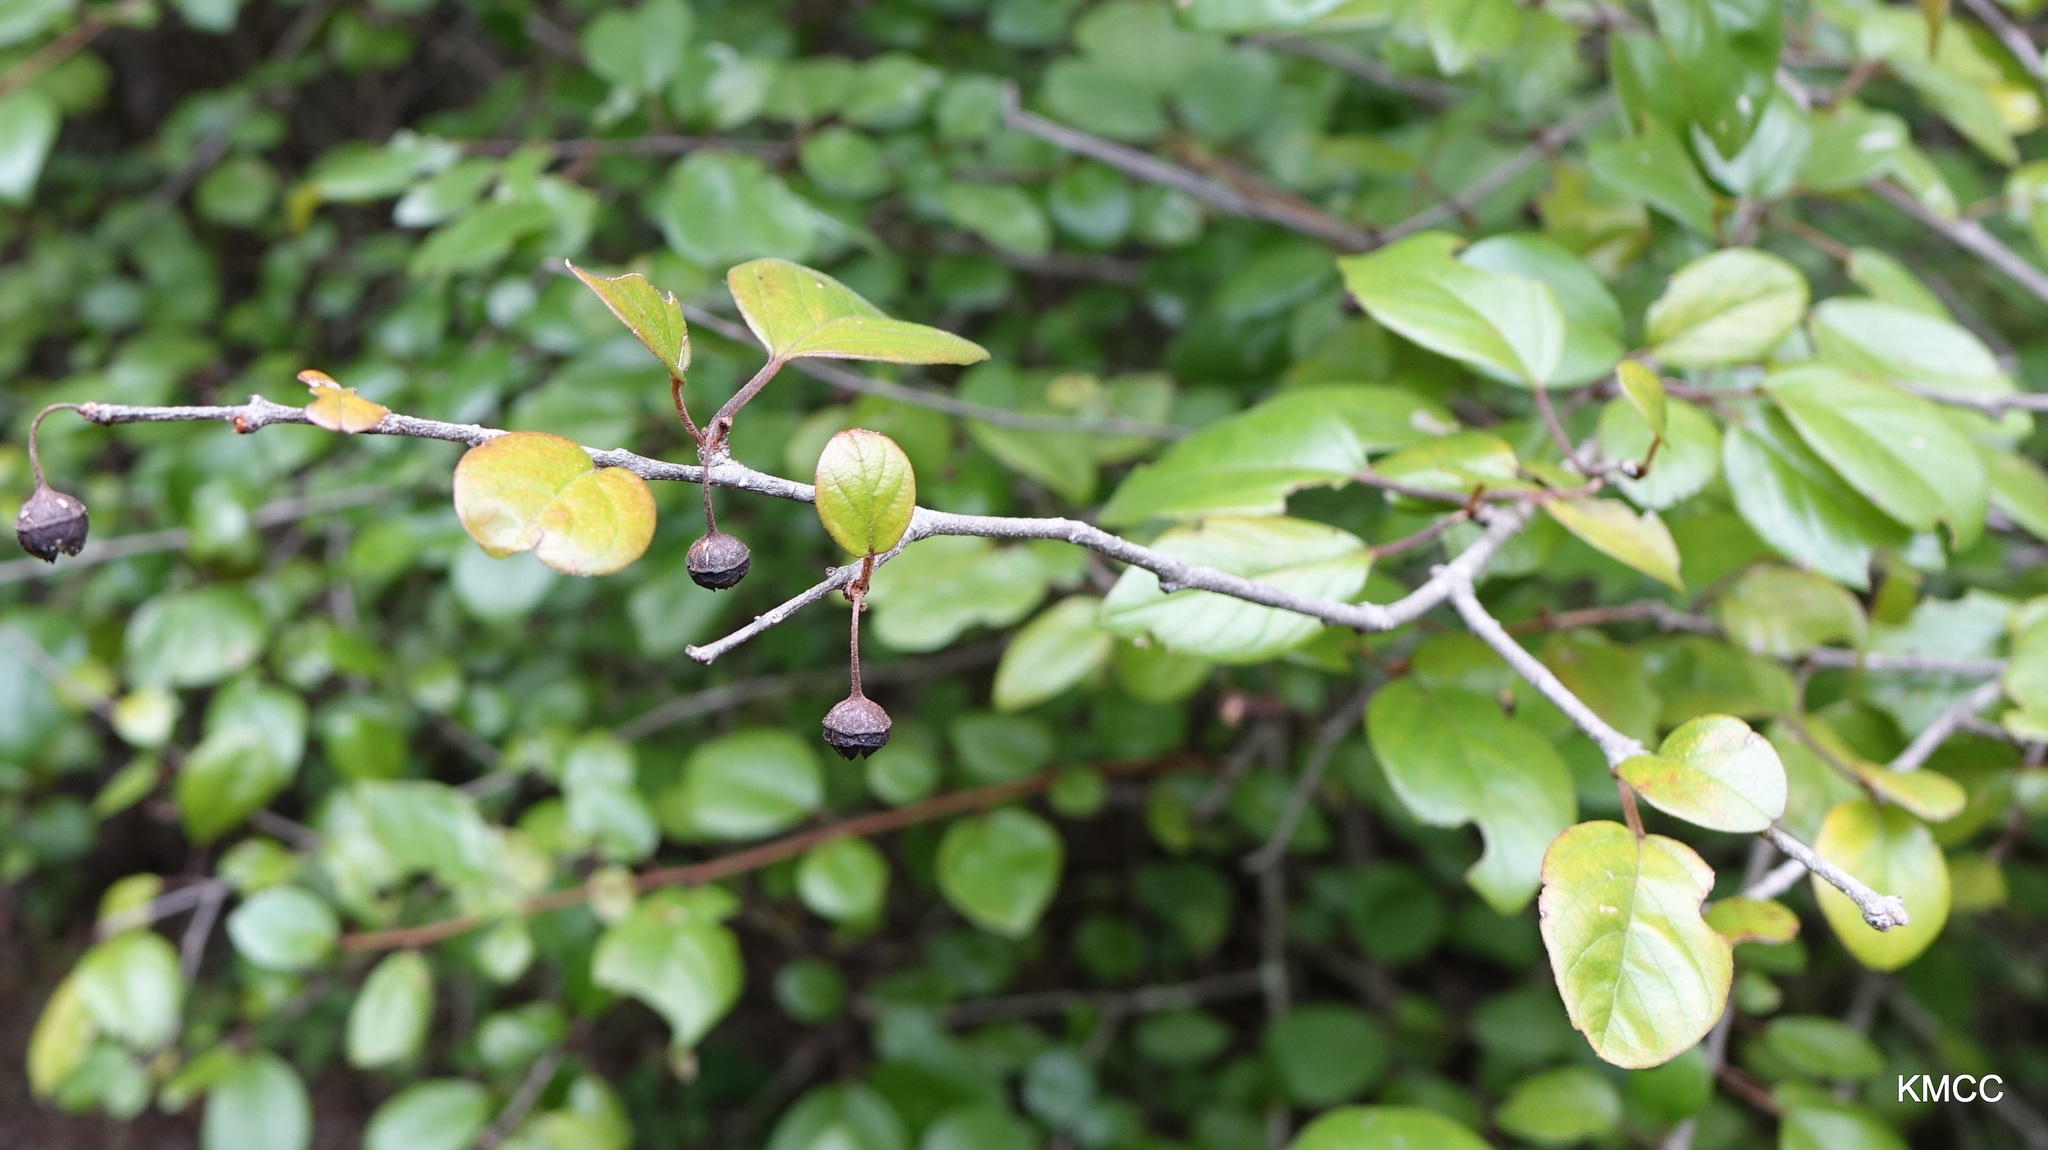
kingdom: Plantae
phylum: Tracheophyta
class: Magnoliopsida
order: Rosales
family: Rhamnaceae
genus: Colubrina
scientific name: Colubrina alluaudii
